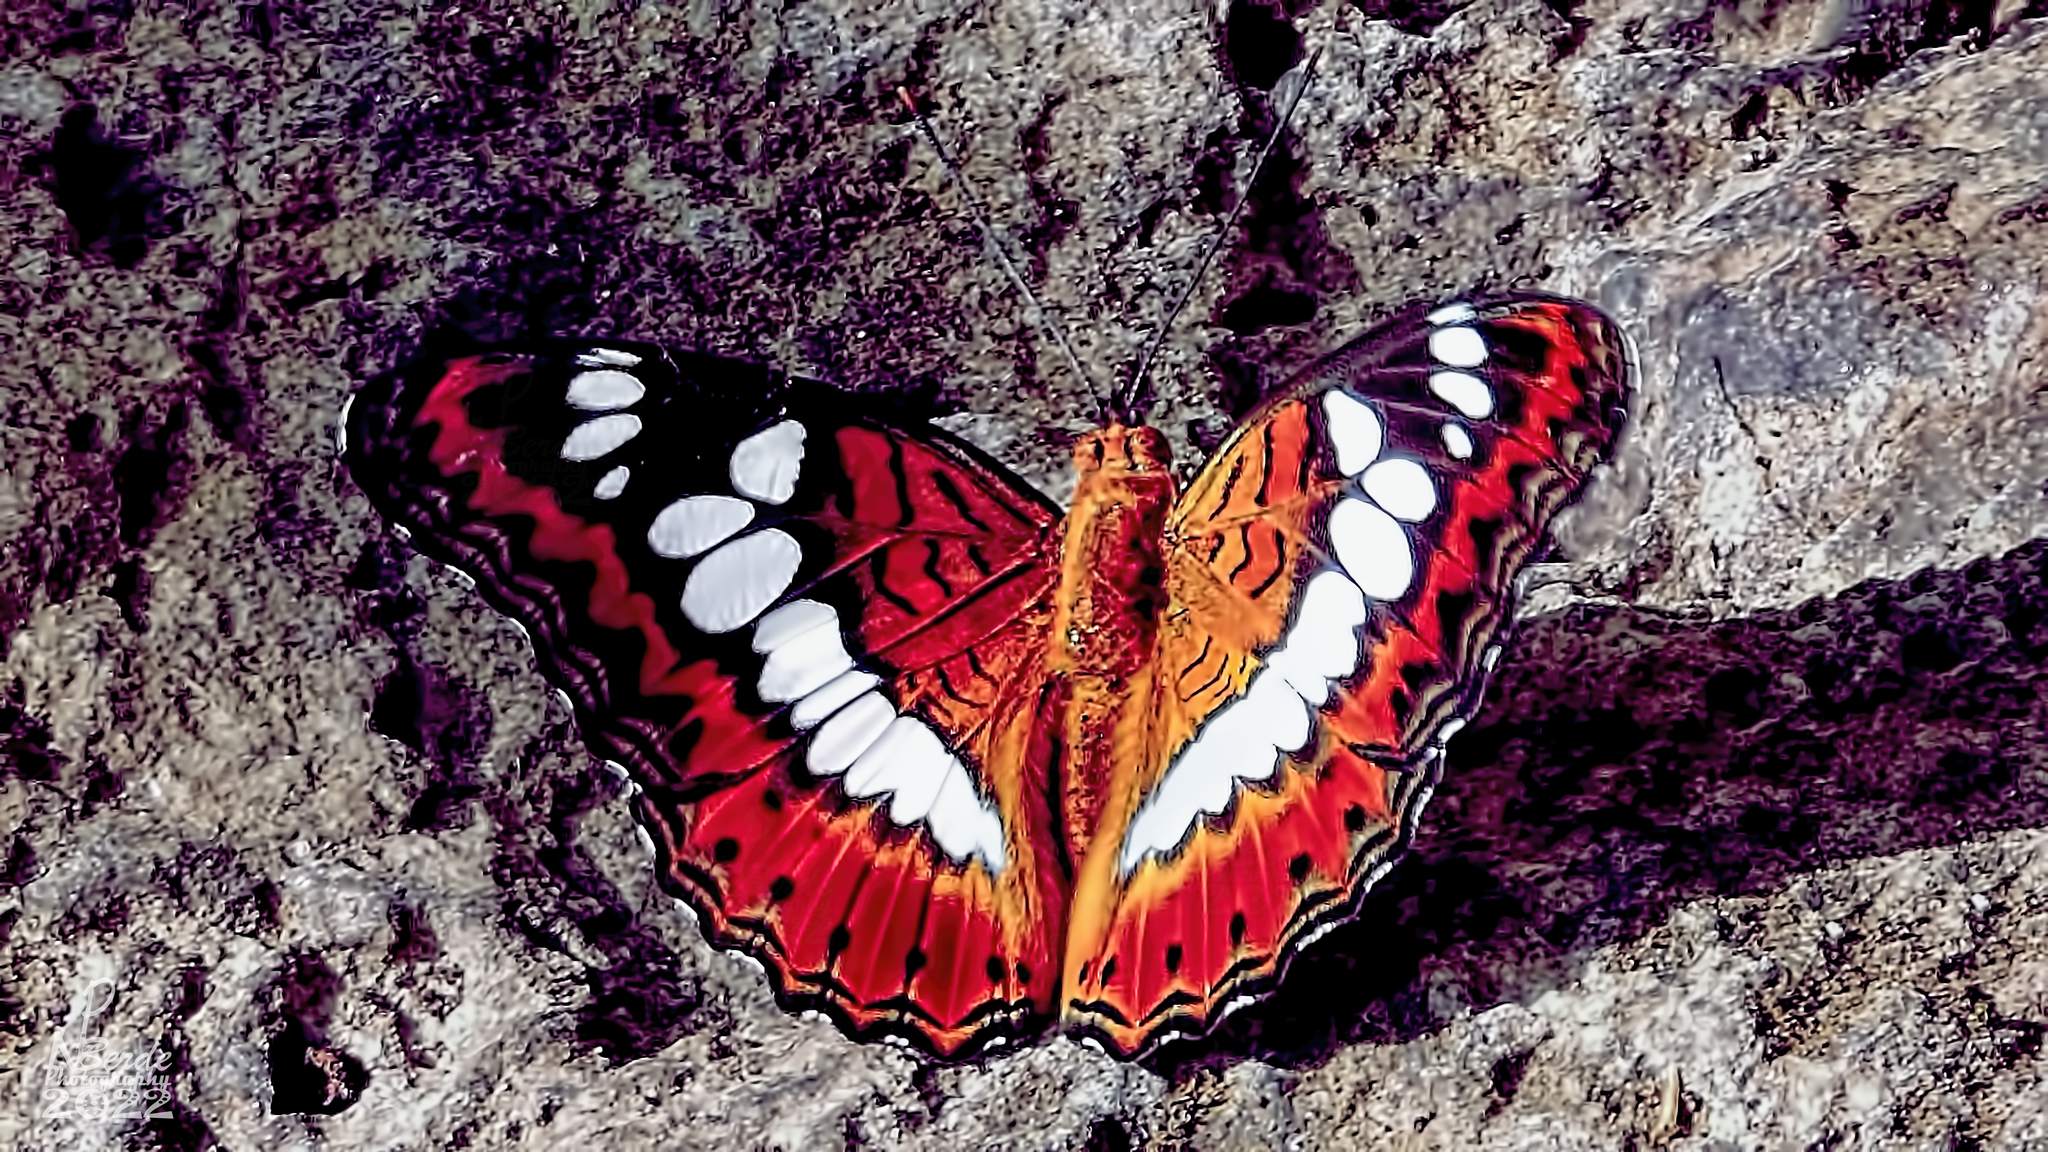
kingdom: Animalia
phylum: Arthropoda
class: Insecta
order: Lepidoptera
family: Nymphalidae
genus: Limenitis
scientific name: Limenitis Moduza procris
